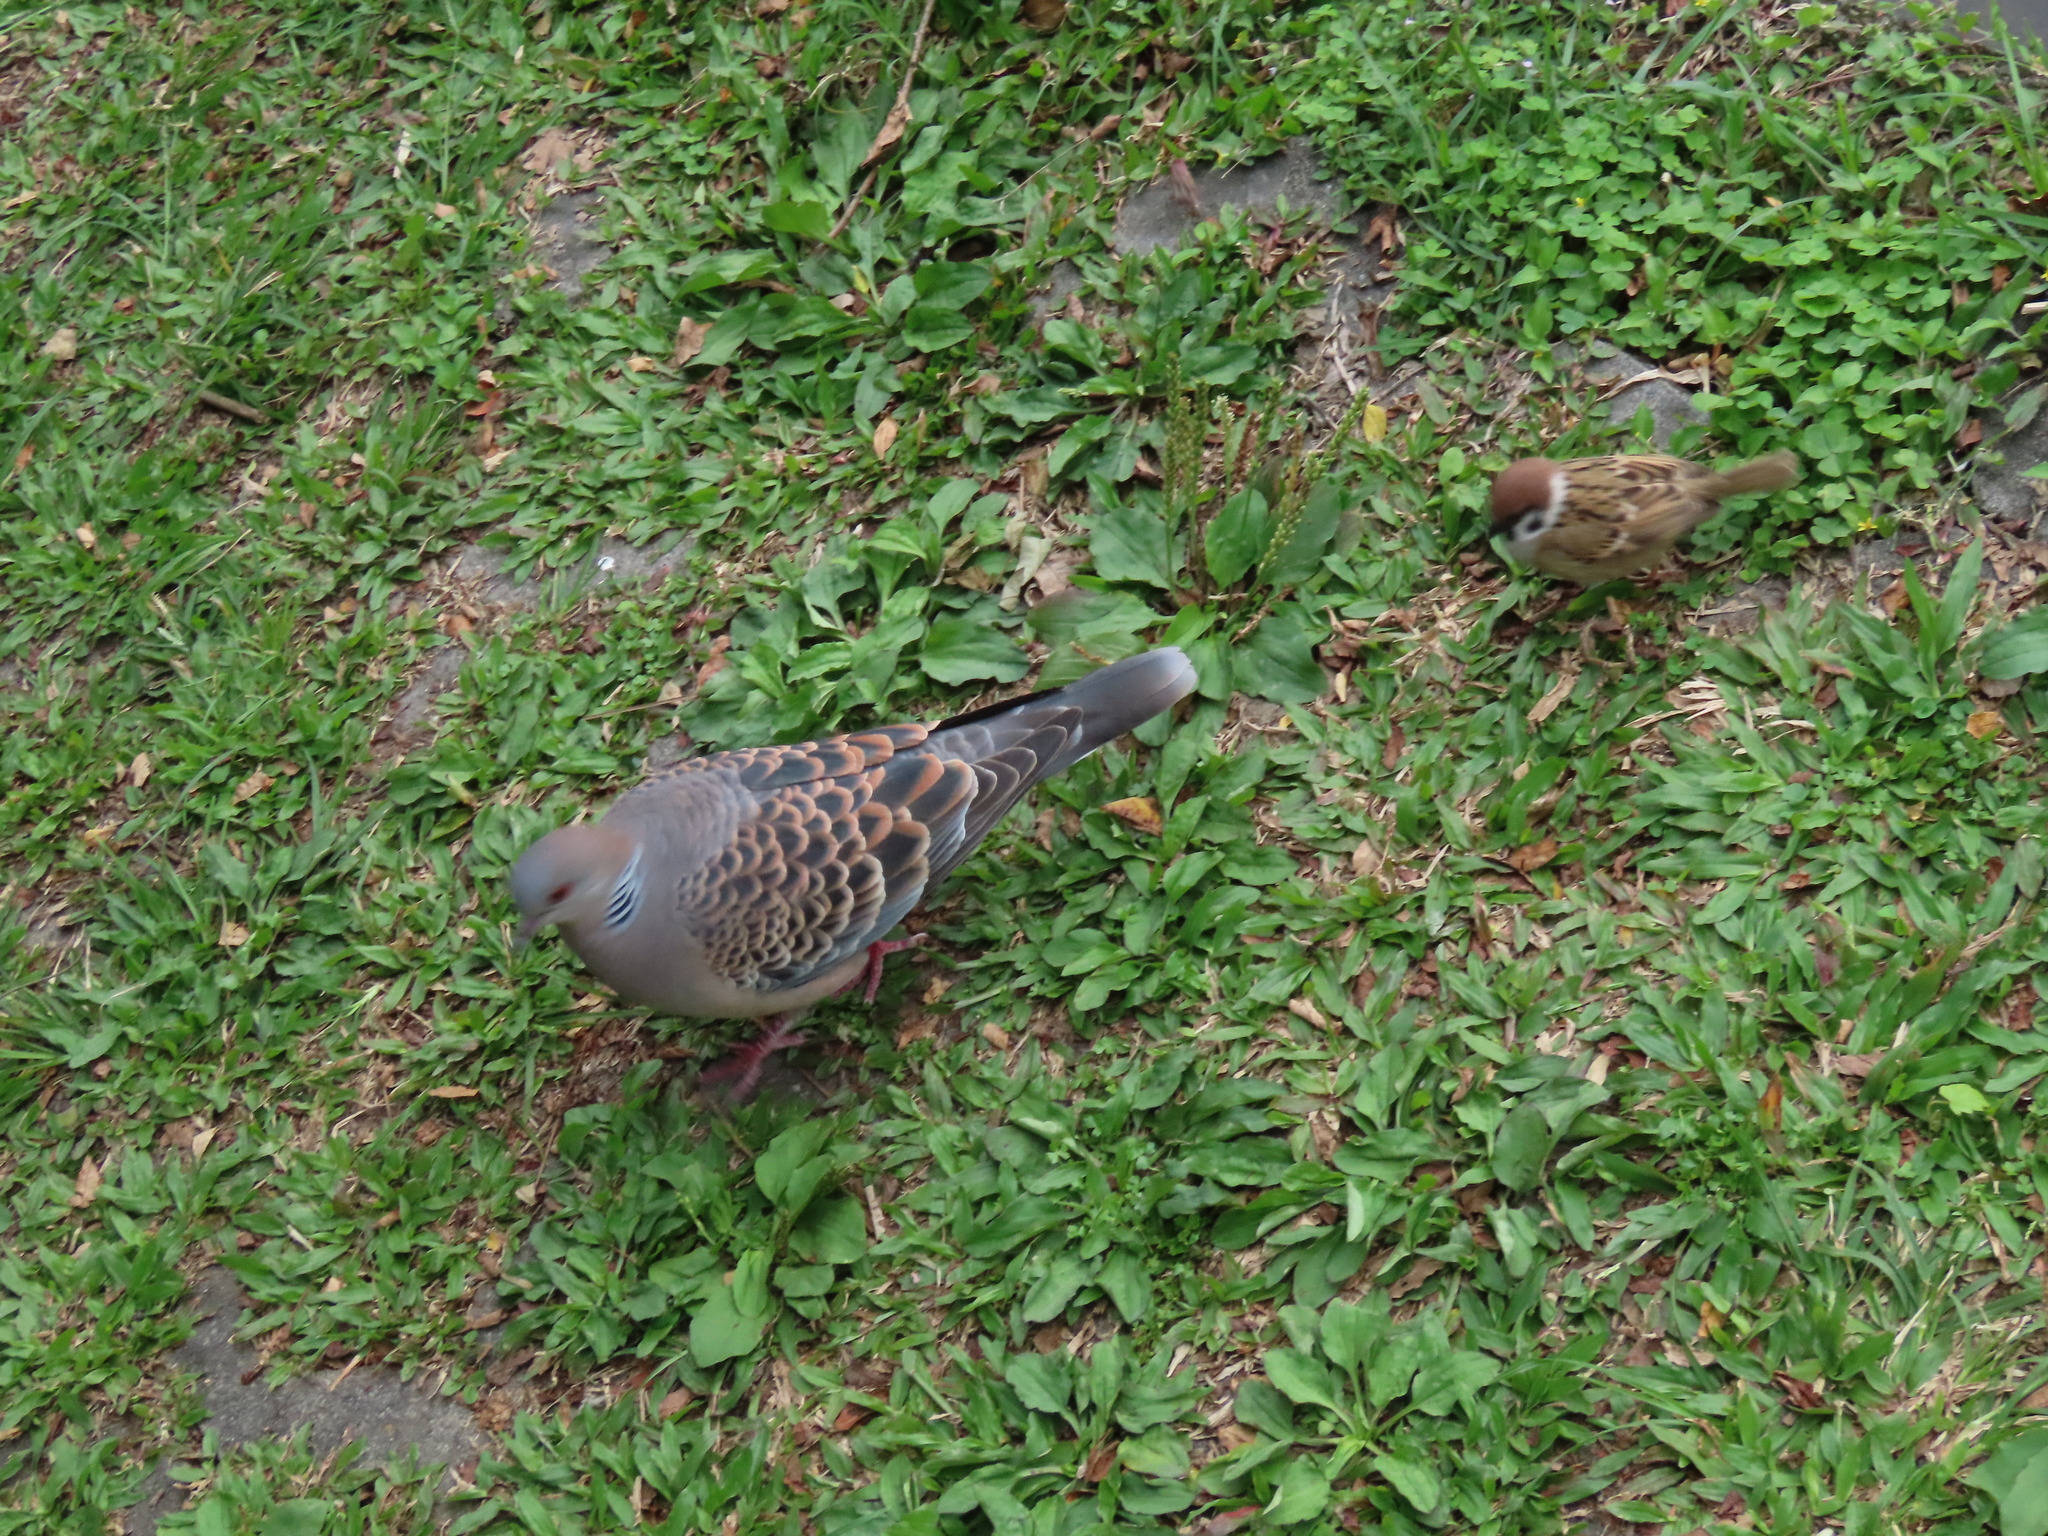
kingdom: Animalia
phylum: Chordata
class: Aves
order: Columbiformes
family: Columbidae
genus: Streptopelia
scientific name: Streptopelia orientalis
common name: Oriental turtle dove
